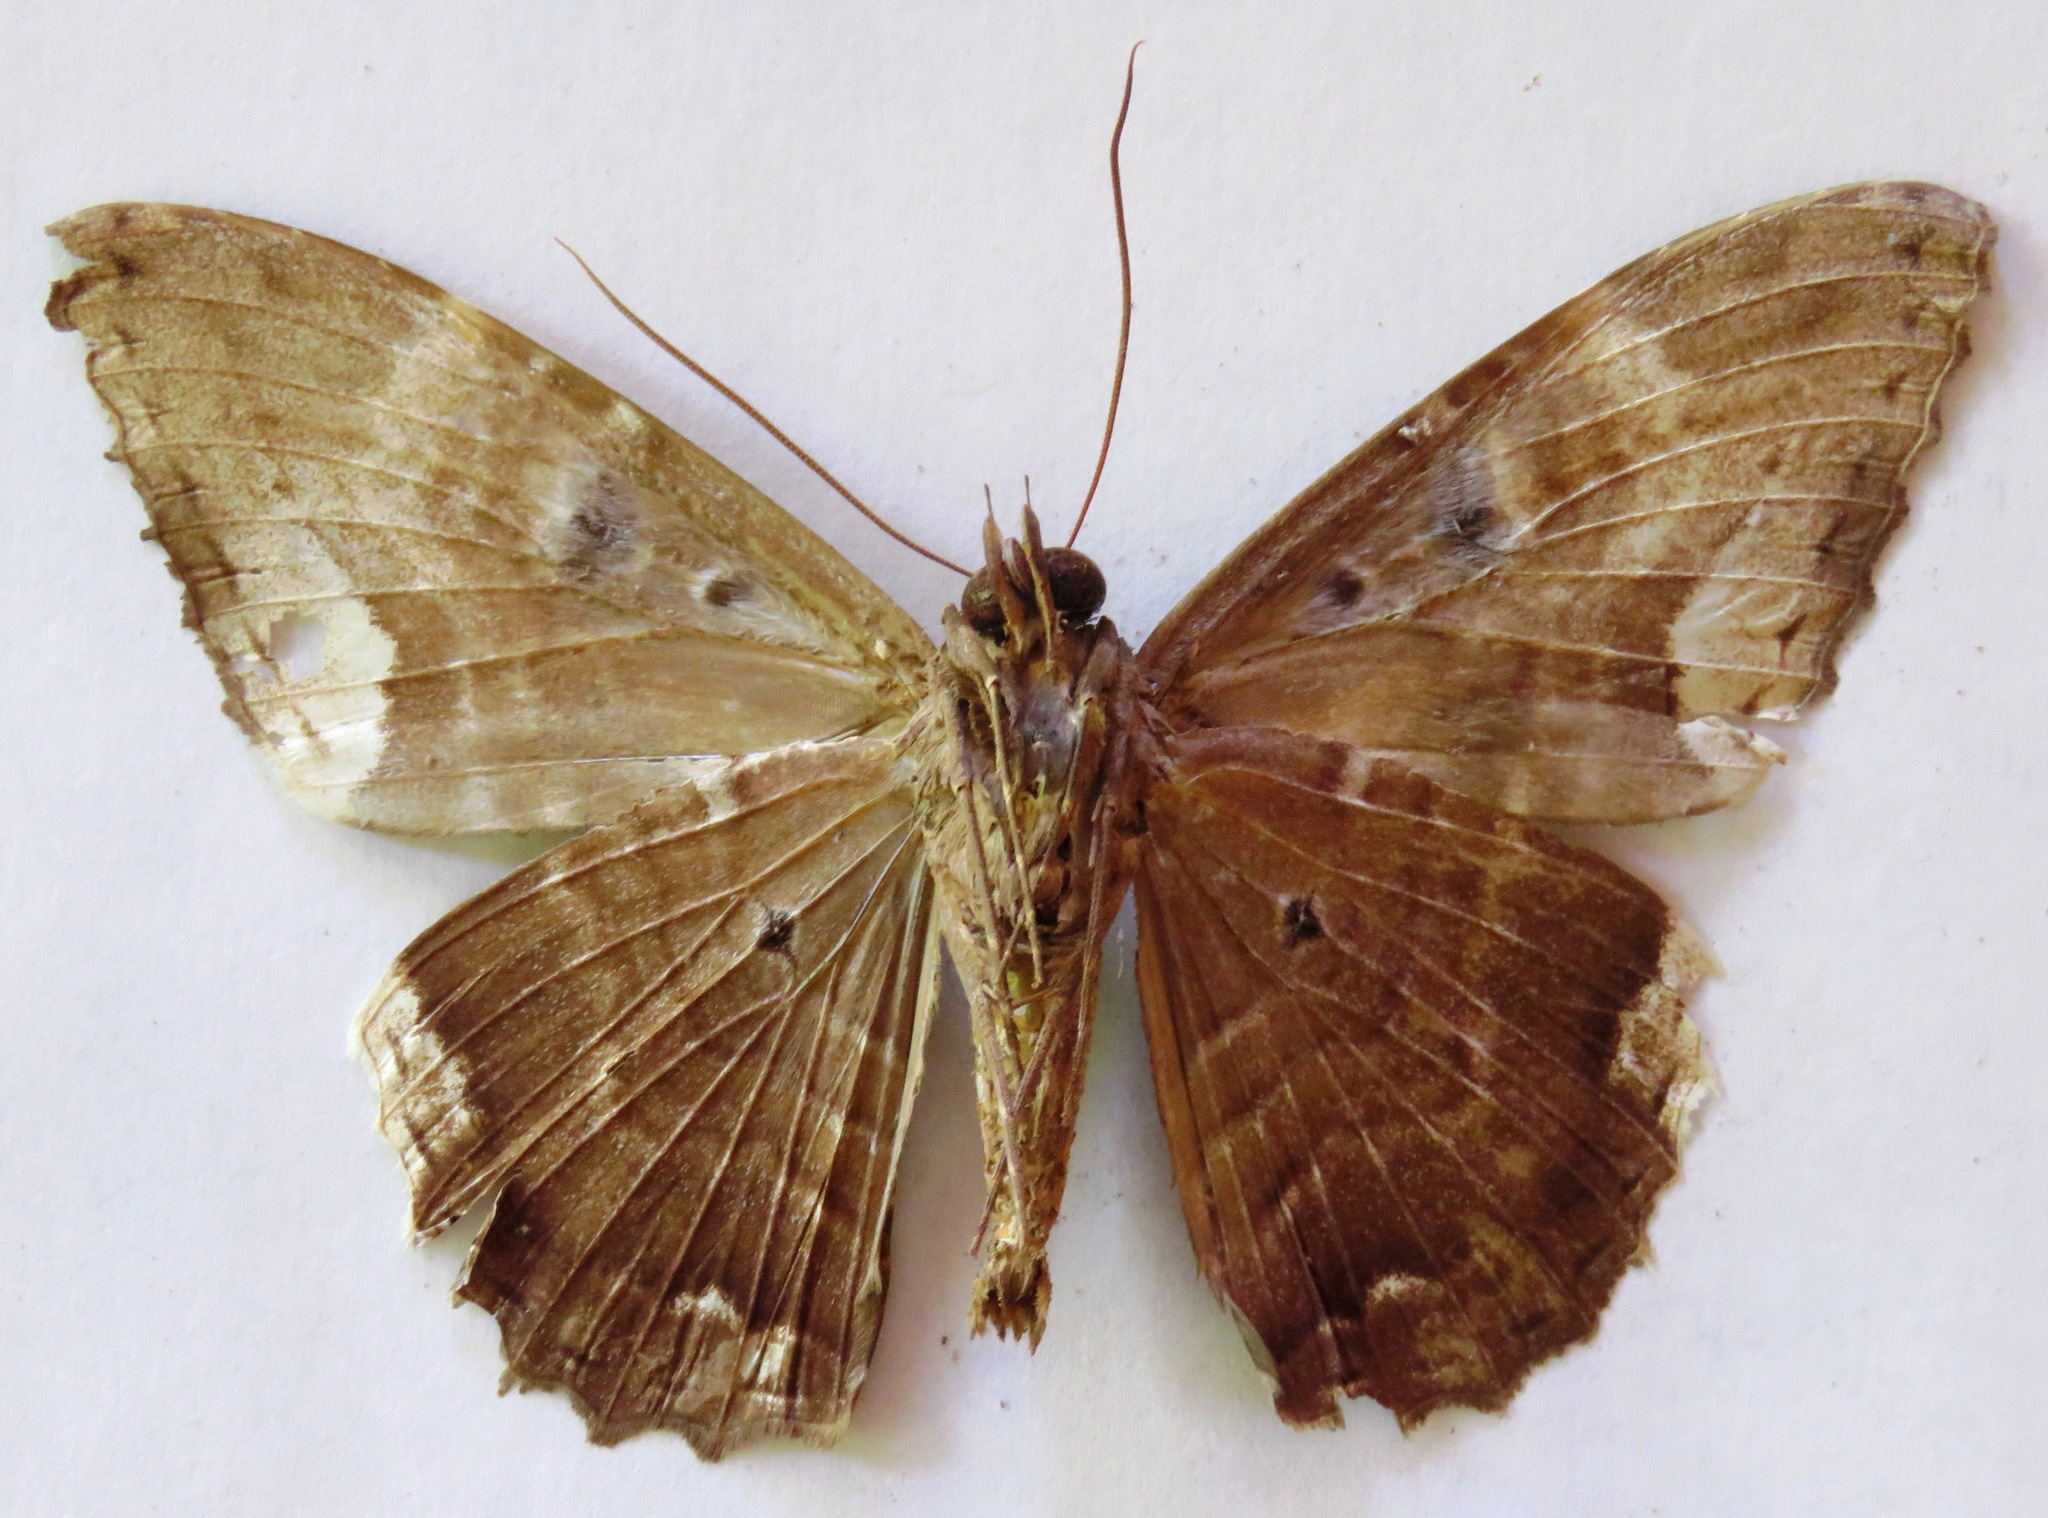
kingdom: Animalia
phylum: Arthropoda
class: Insecta
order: Lepidoptera
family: Erebidae
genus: Feigeria
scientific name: Feigeria herilia
